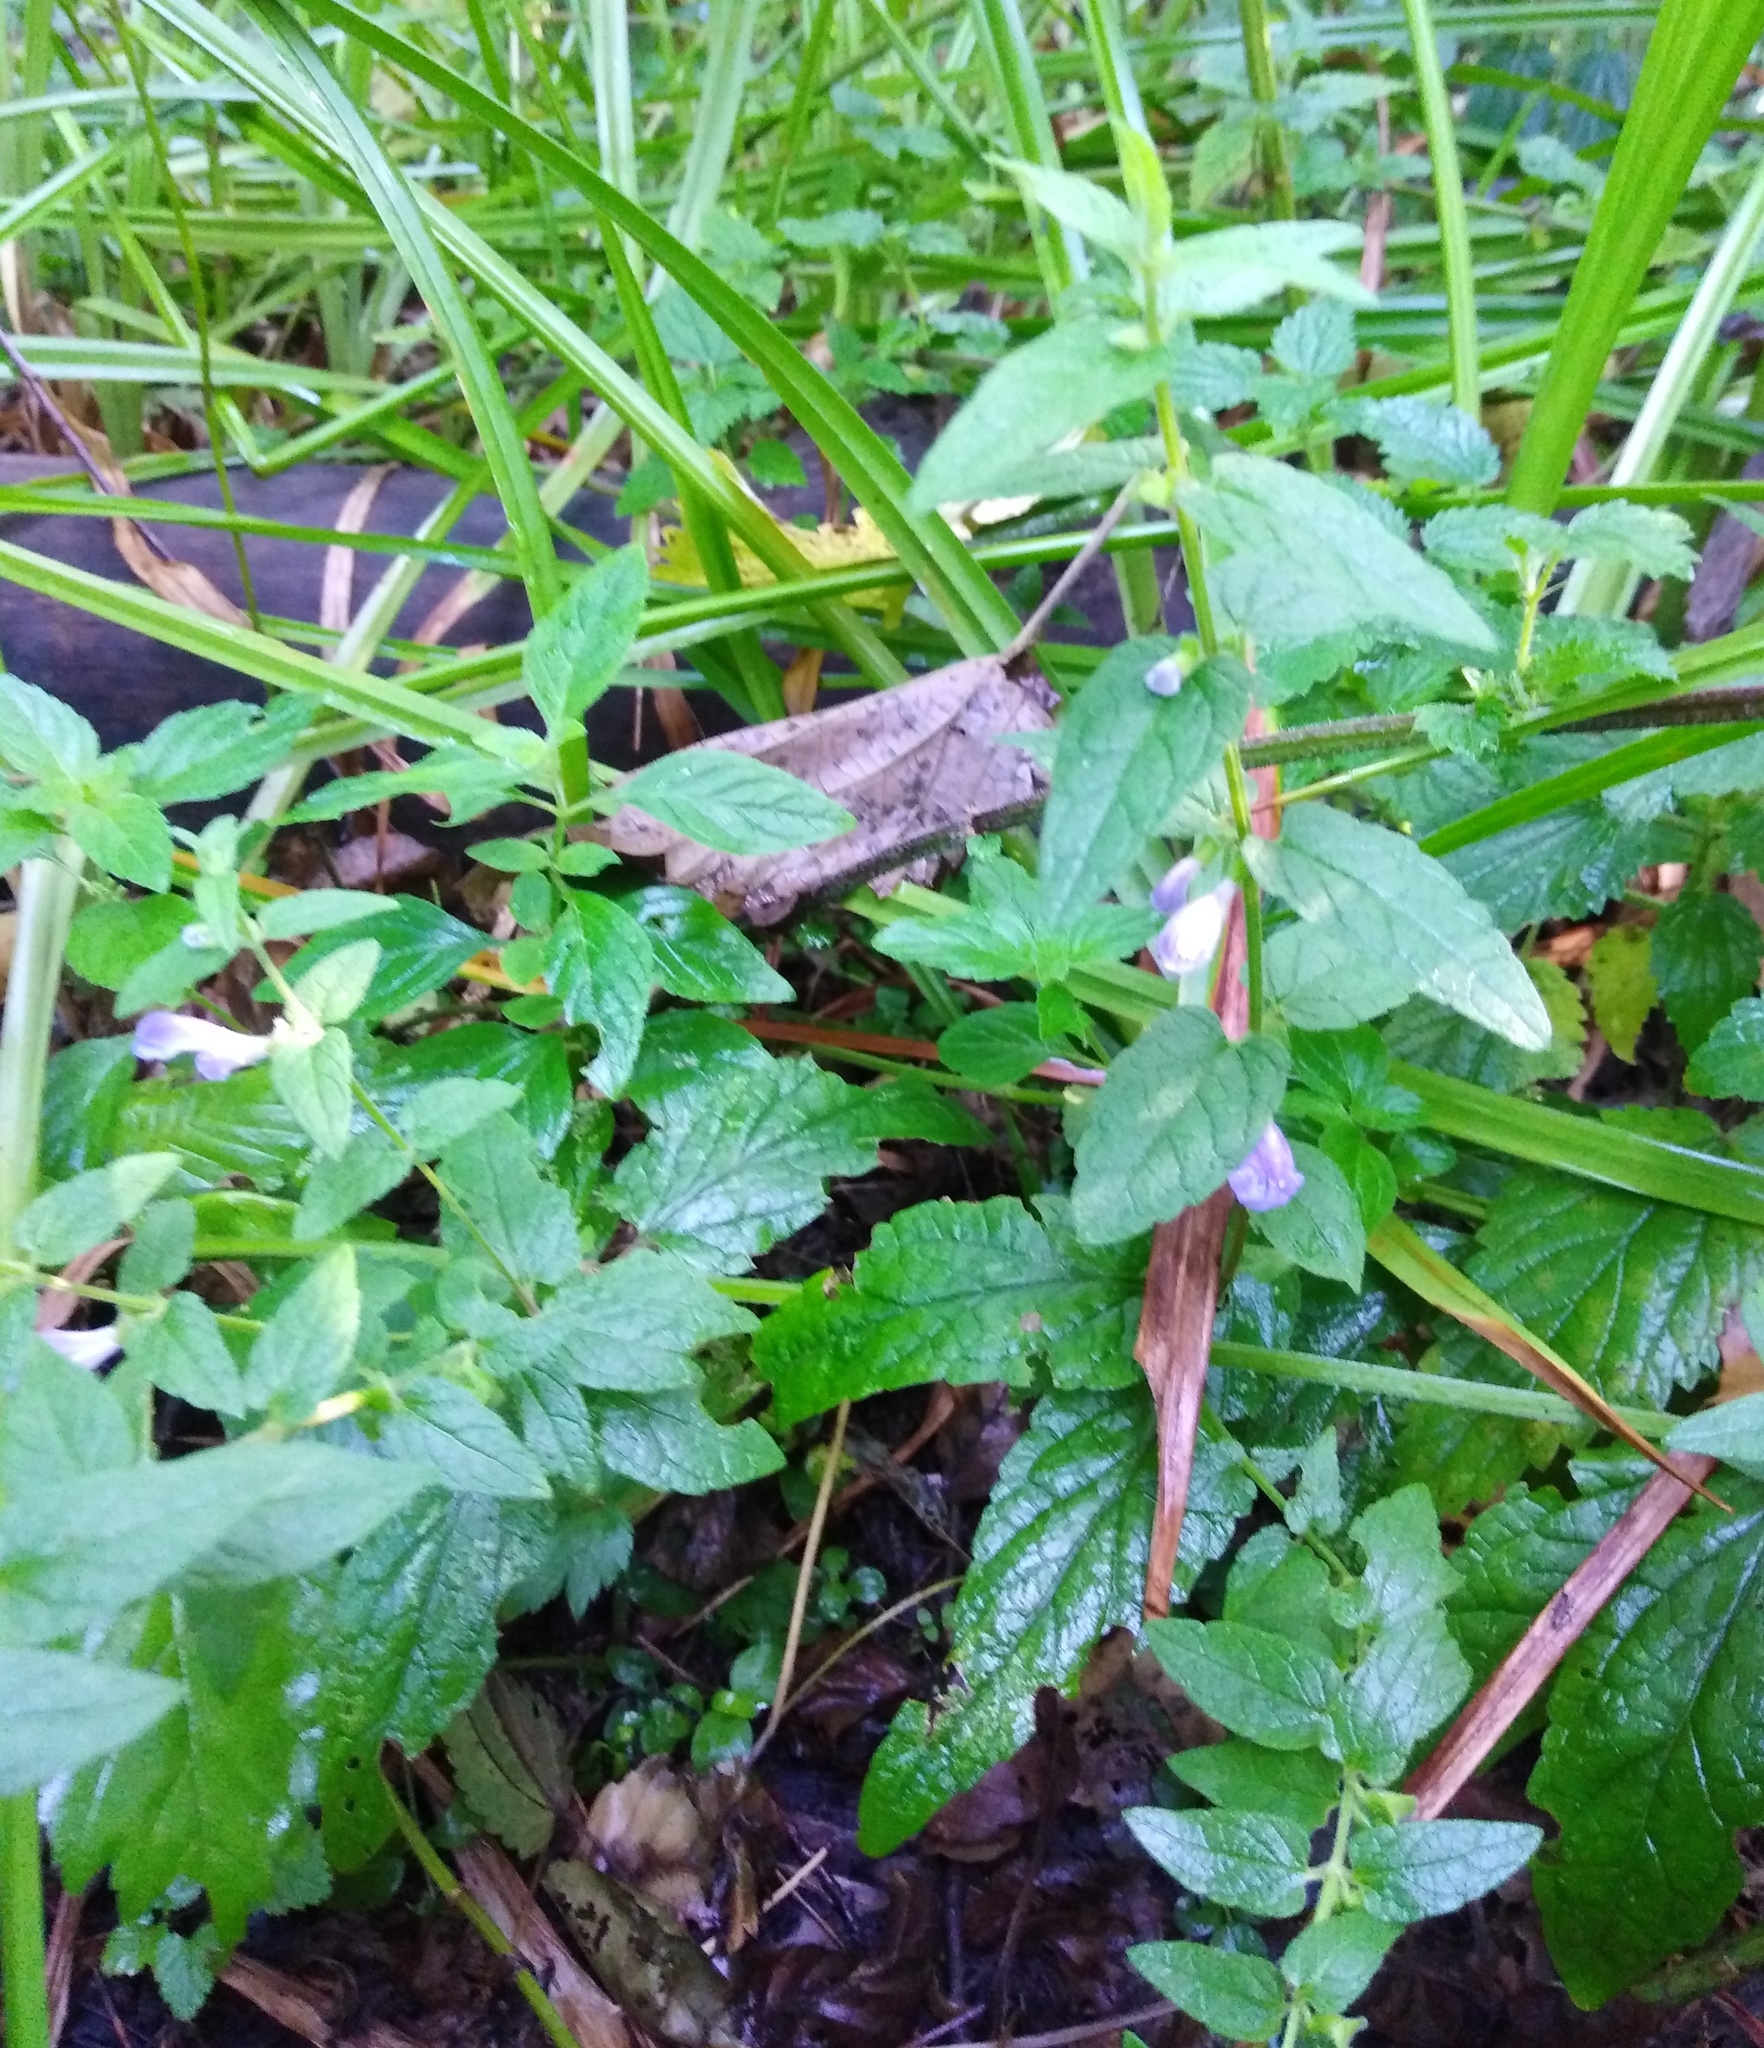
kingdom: Plantae
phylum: Tracheophyta
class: Magnoliopsida
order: Lamiales
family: Lamiaceae
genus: Scutellaria
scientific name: Scutellaria galericulata
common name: Skullcap
